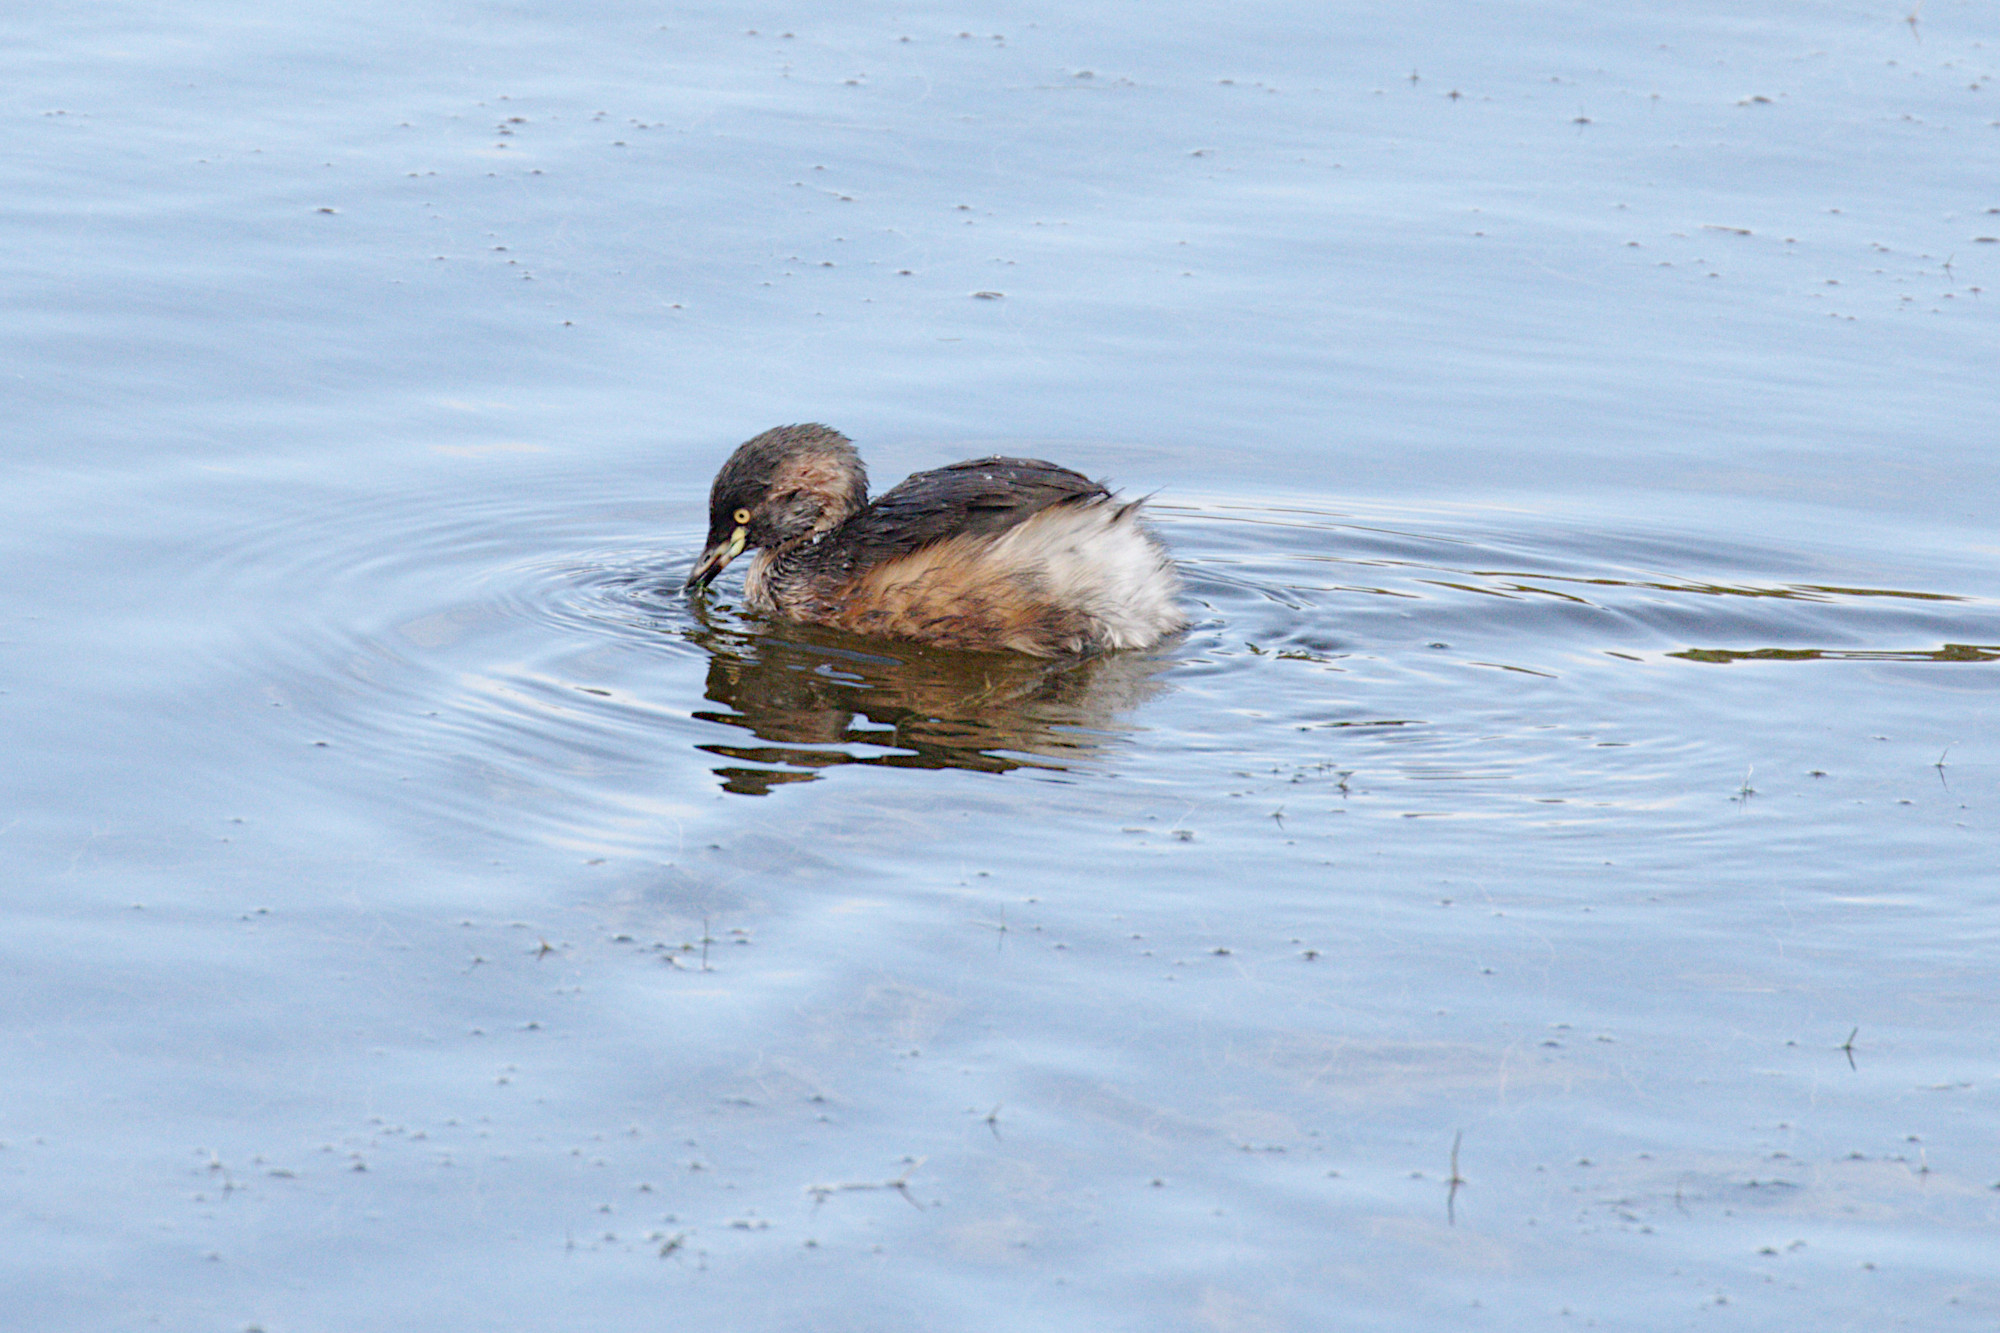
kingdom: Animalia
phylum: Chordata
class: Aves
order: Podicipediformes
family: Podicipedidae
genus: Tachybaptus
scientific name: Tachybaptus novaehollandiae
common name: Australasian grebe
